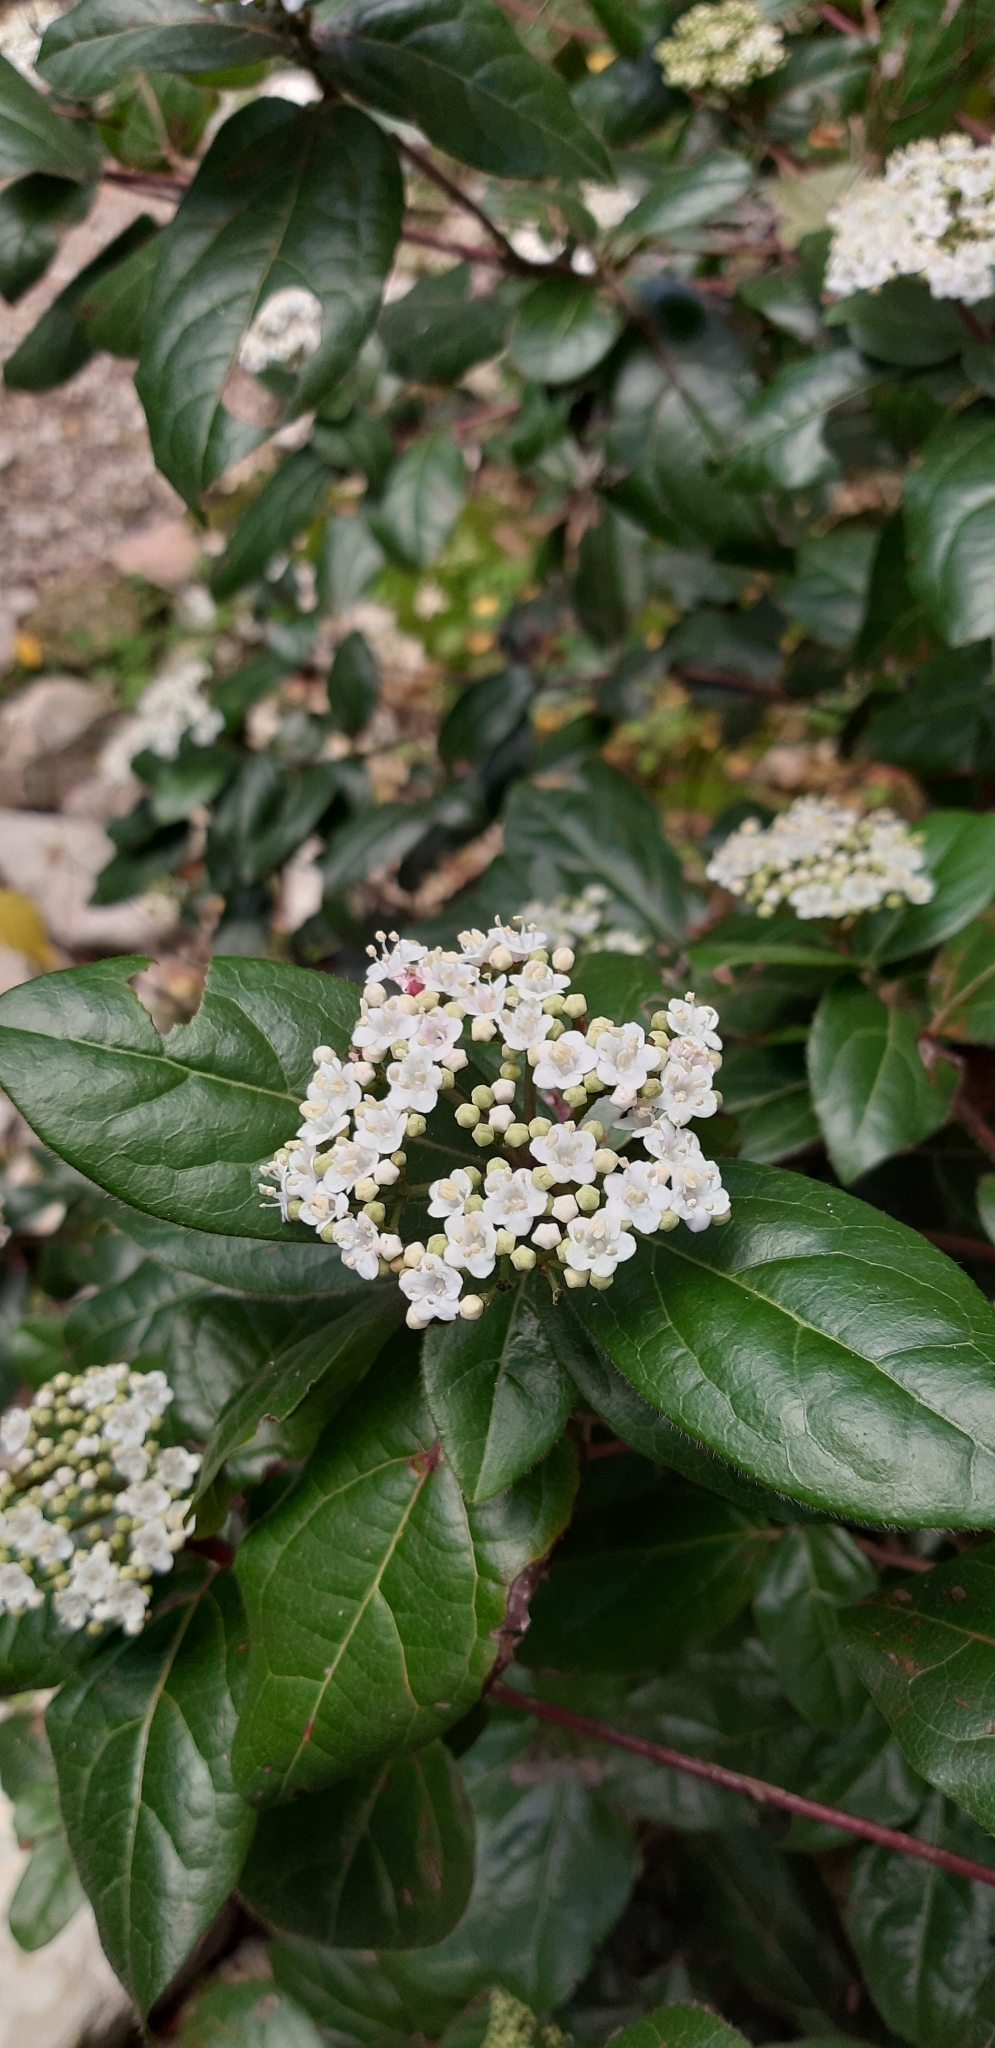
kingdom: Plantae
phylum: Tracheophyta
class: Magnoliopsida
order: Dipsacales
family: Viburnaceae
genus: Viburnum
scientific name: Viburnum tinus
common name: Laurustinus
